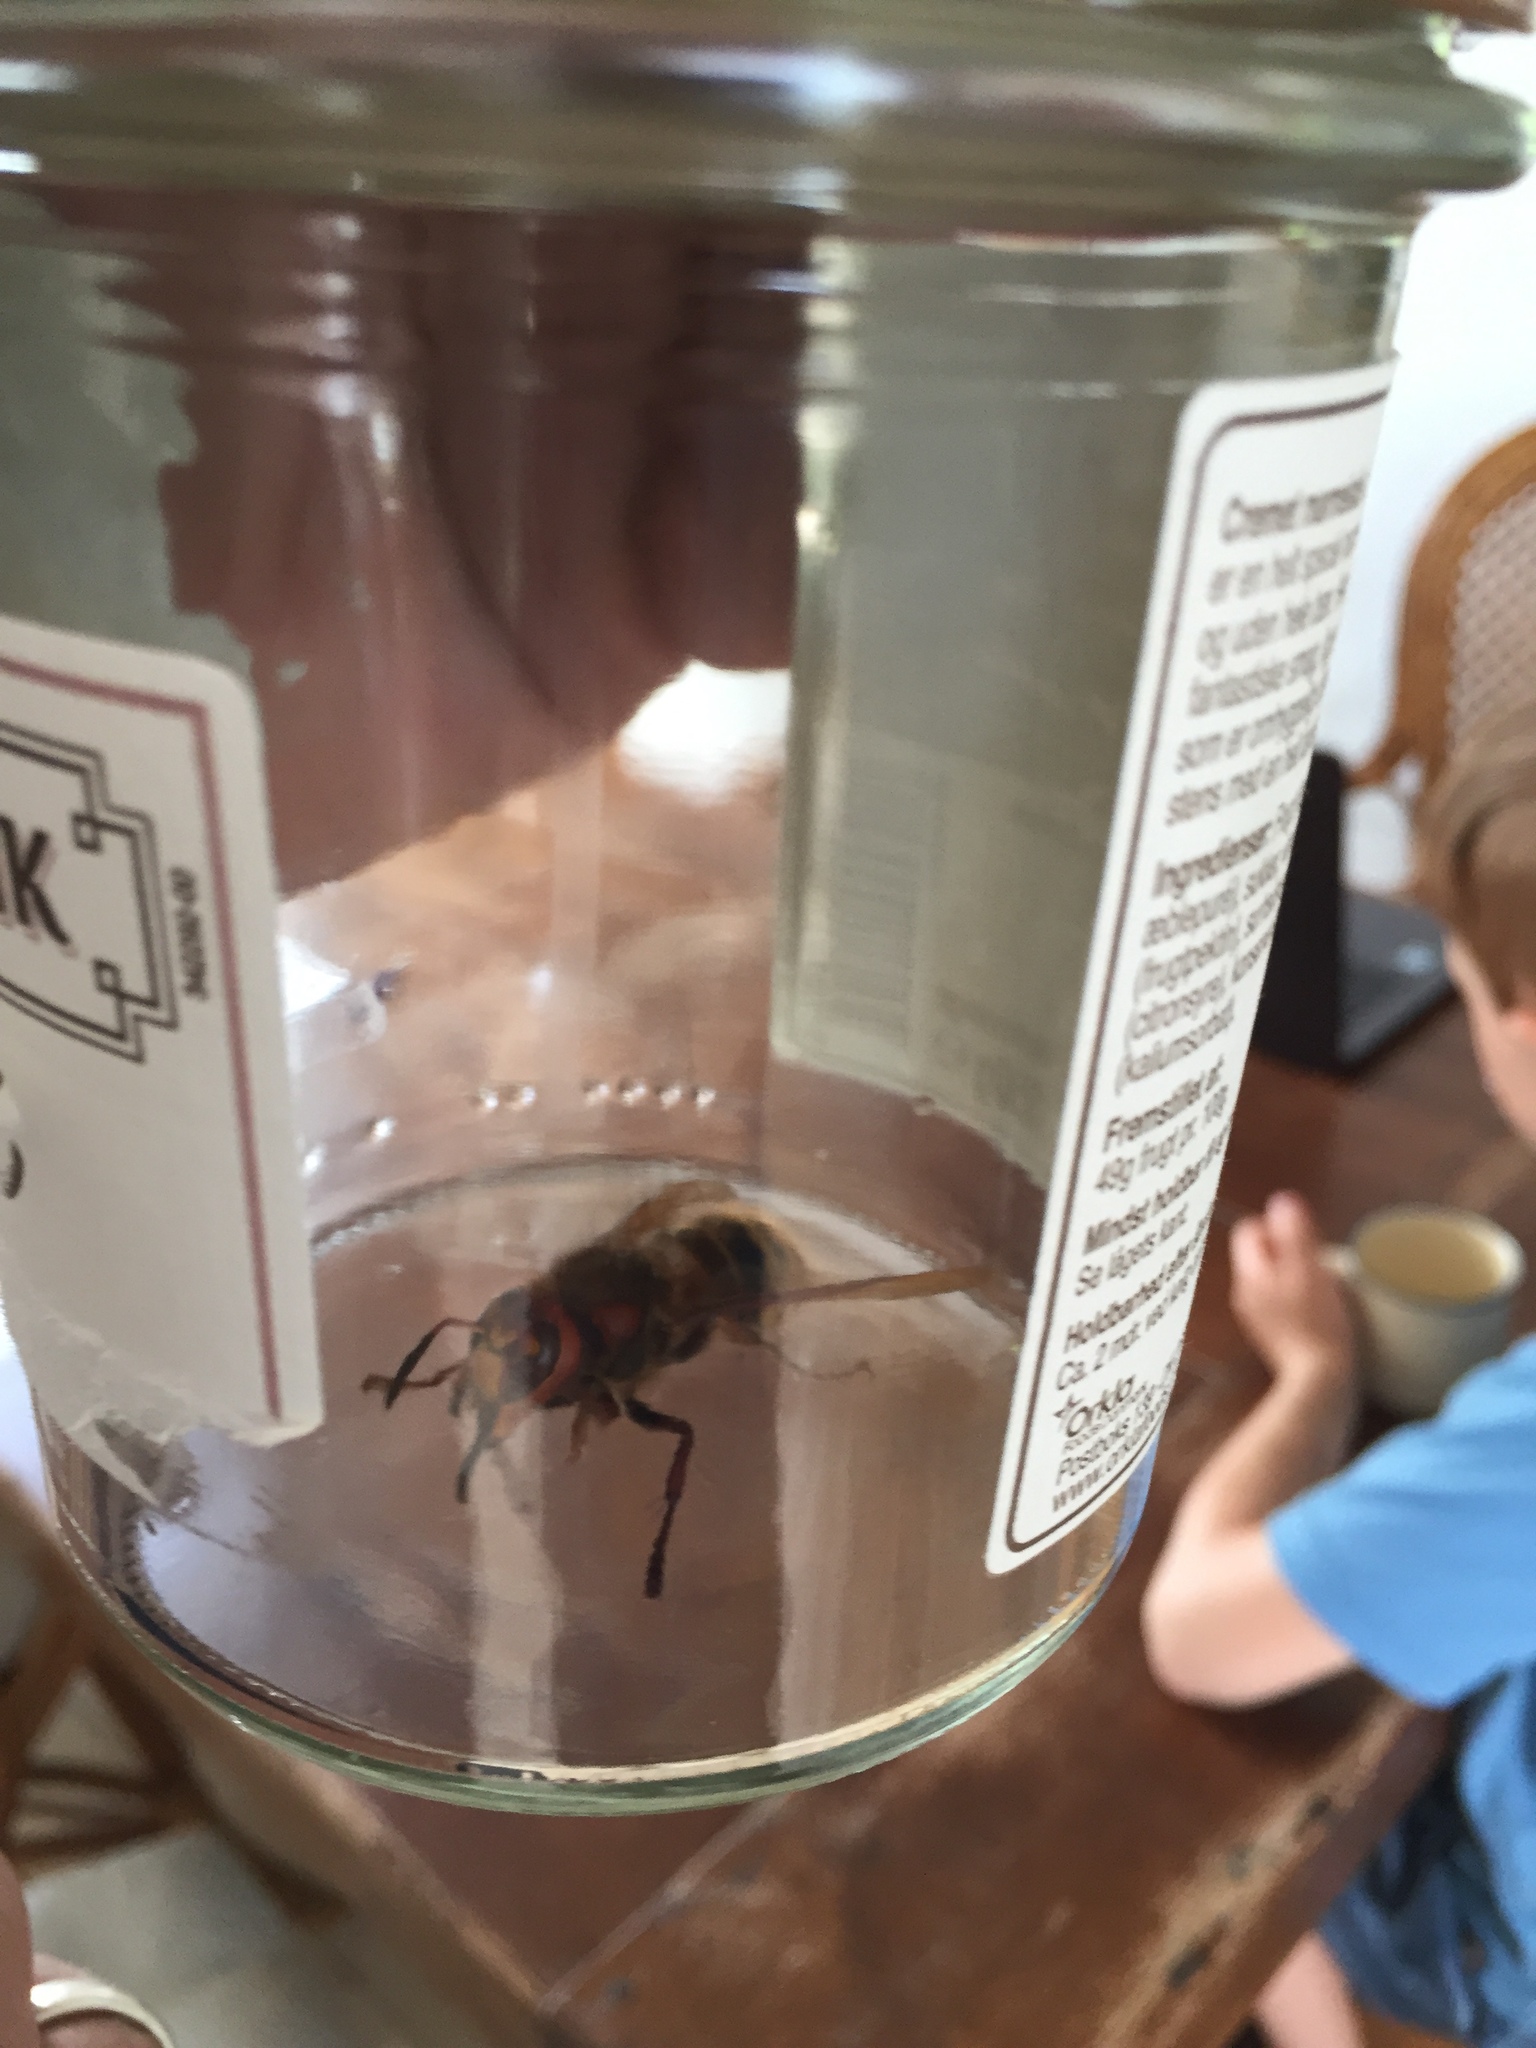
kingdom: Animalia
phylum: Arthropoda
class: Insecta
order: Hymenoptera
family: Vespidae
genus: Vespa
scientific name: Vespa crabro
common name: Hornet
